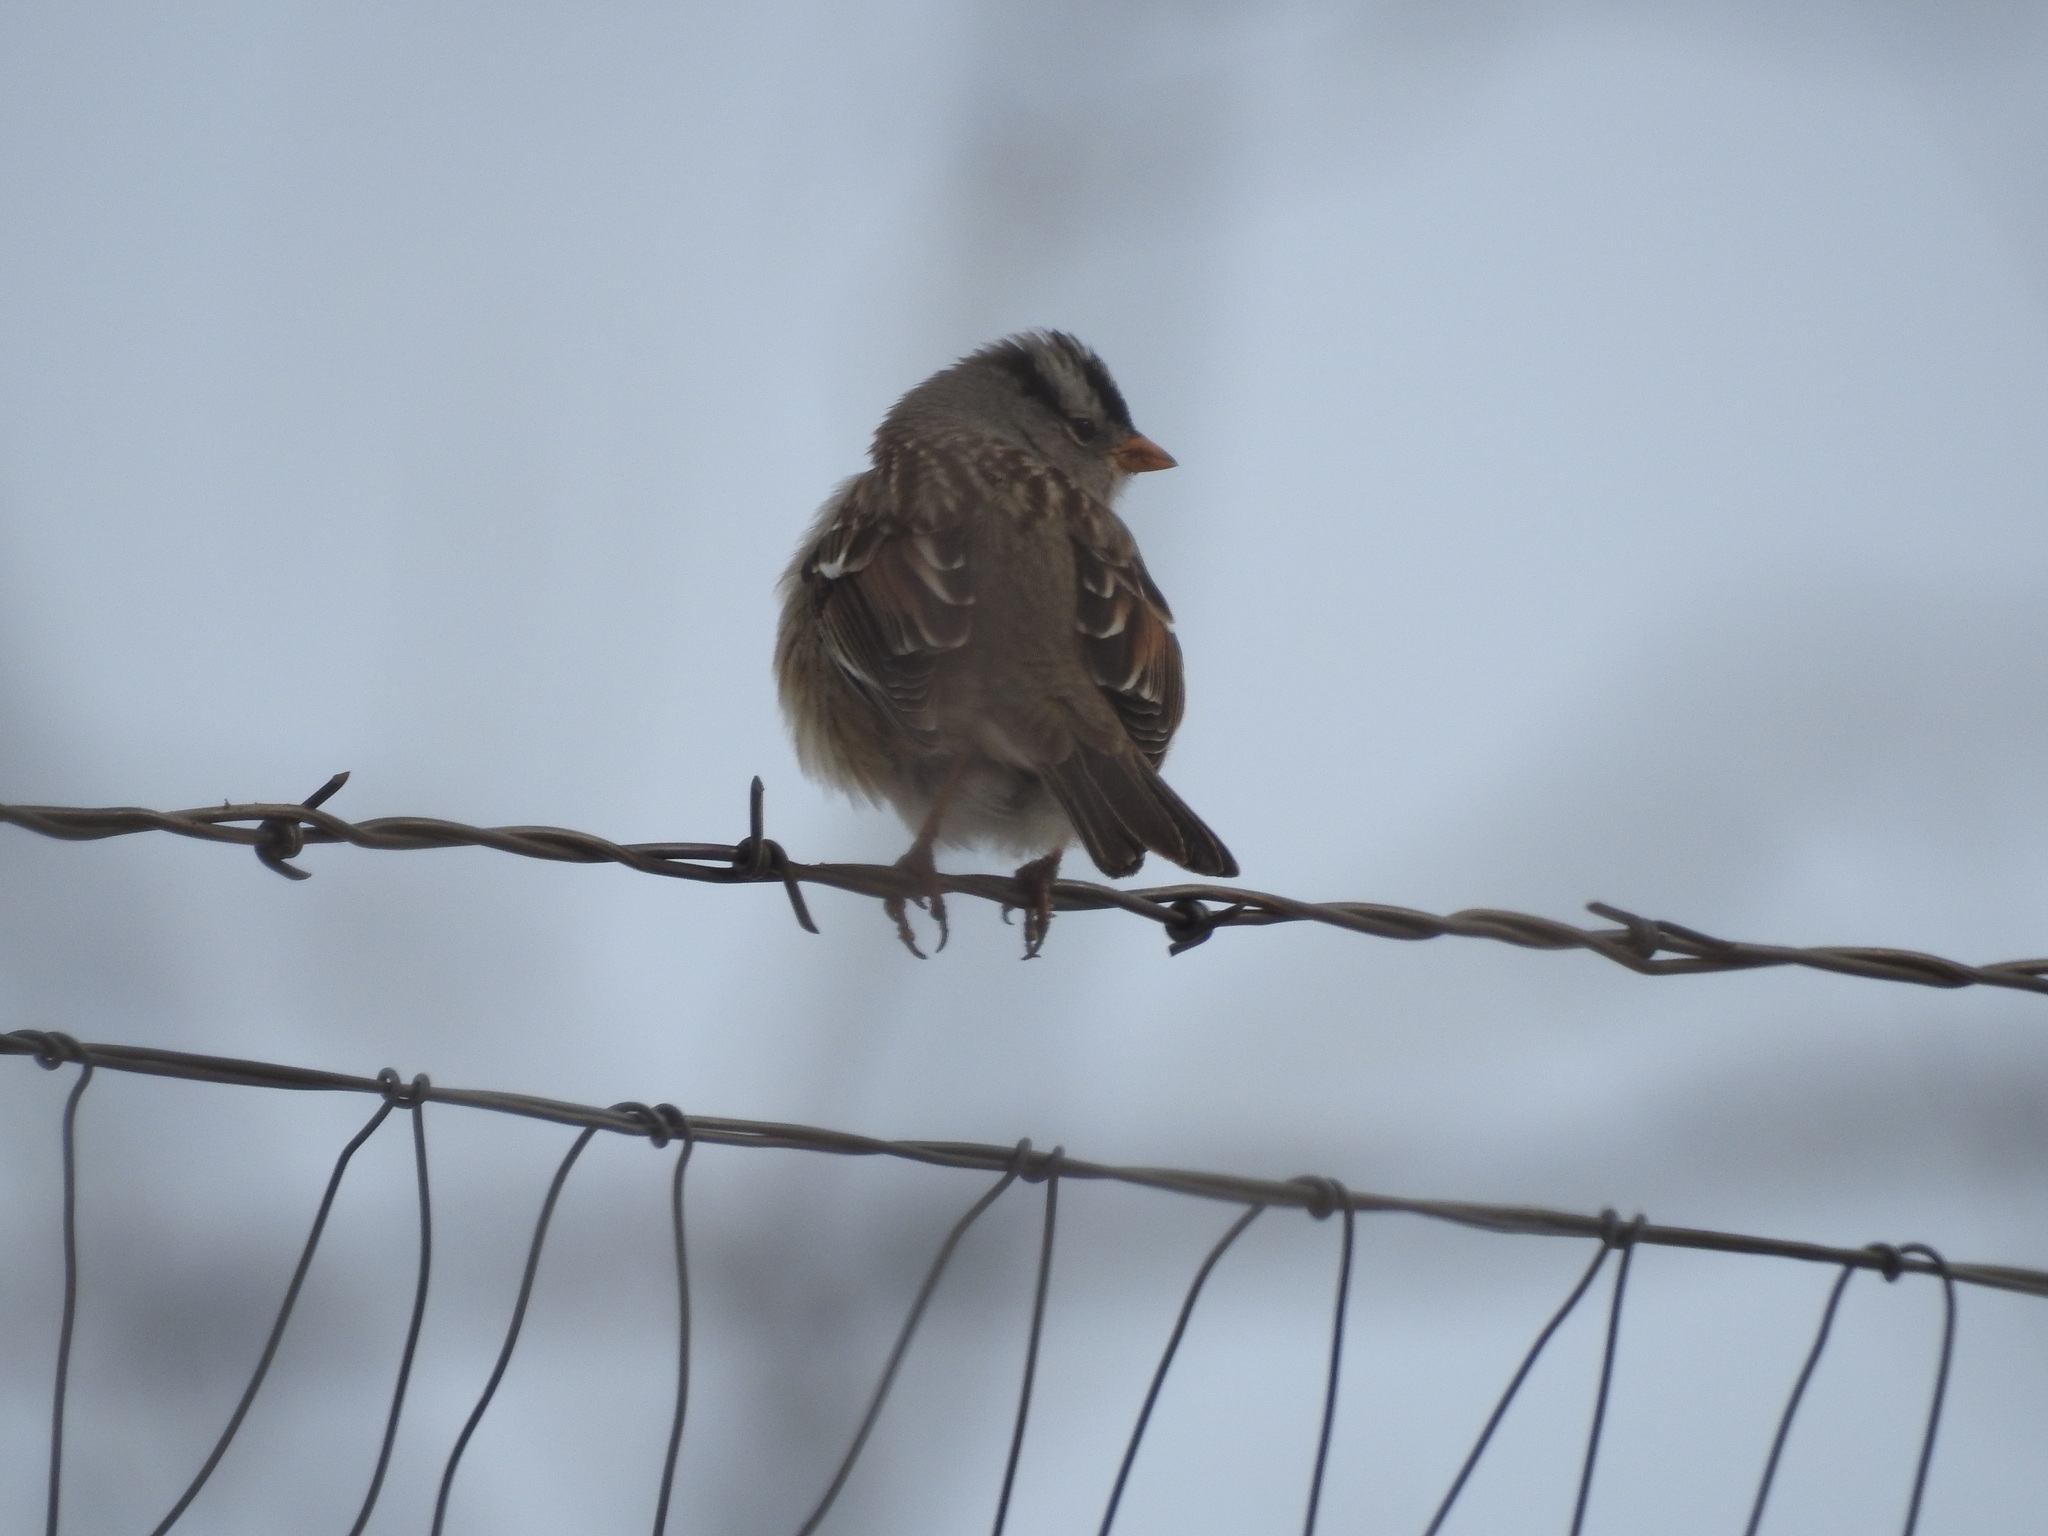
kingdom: Animalia
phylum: Chordata
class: Aves
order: Passeriformes
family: Passerellidae
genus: Zonotrichia
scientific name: Zonotrichia leucophrys
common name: White-crowned sparrow
